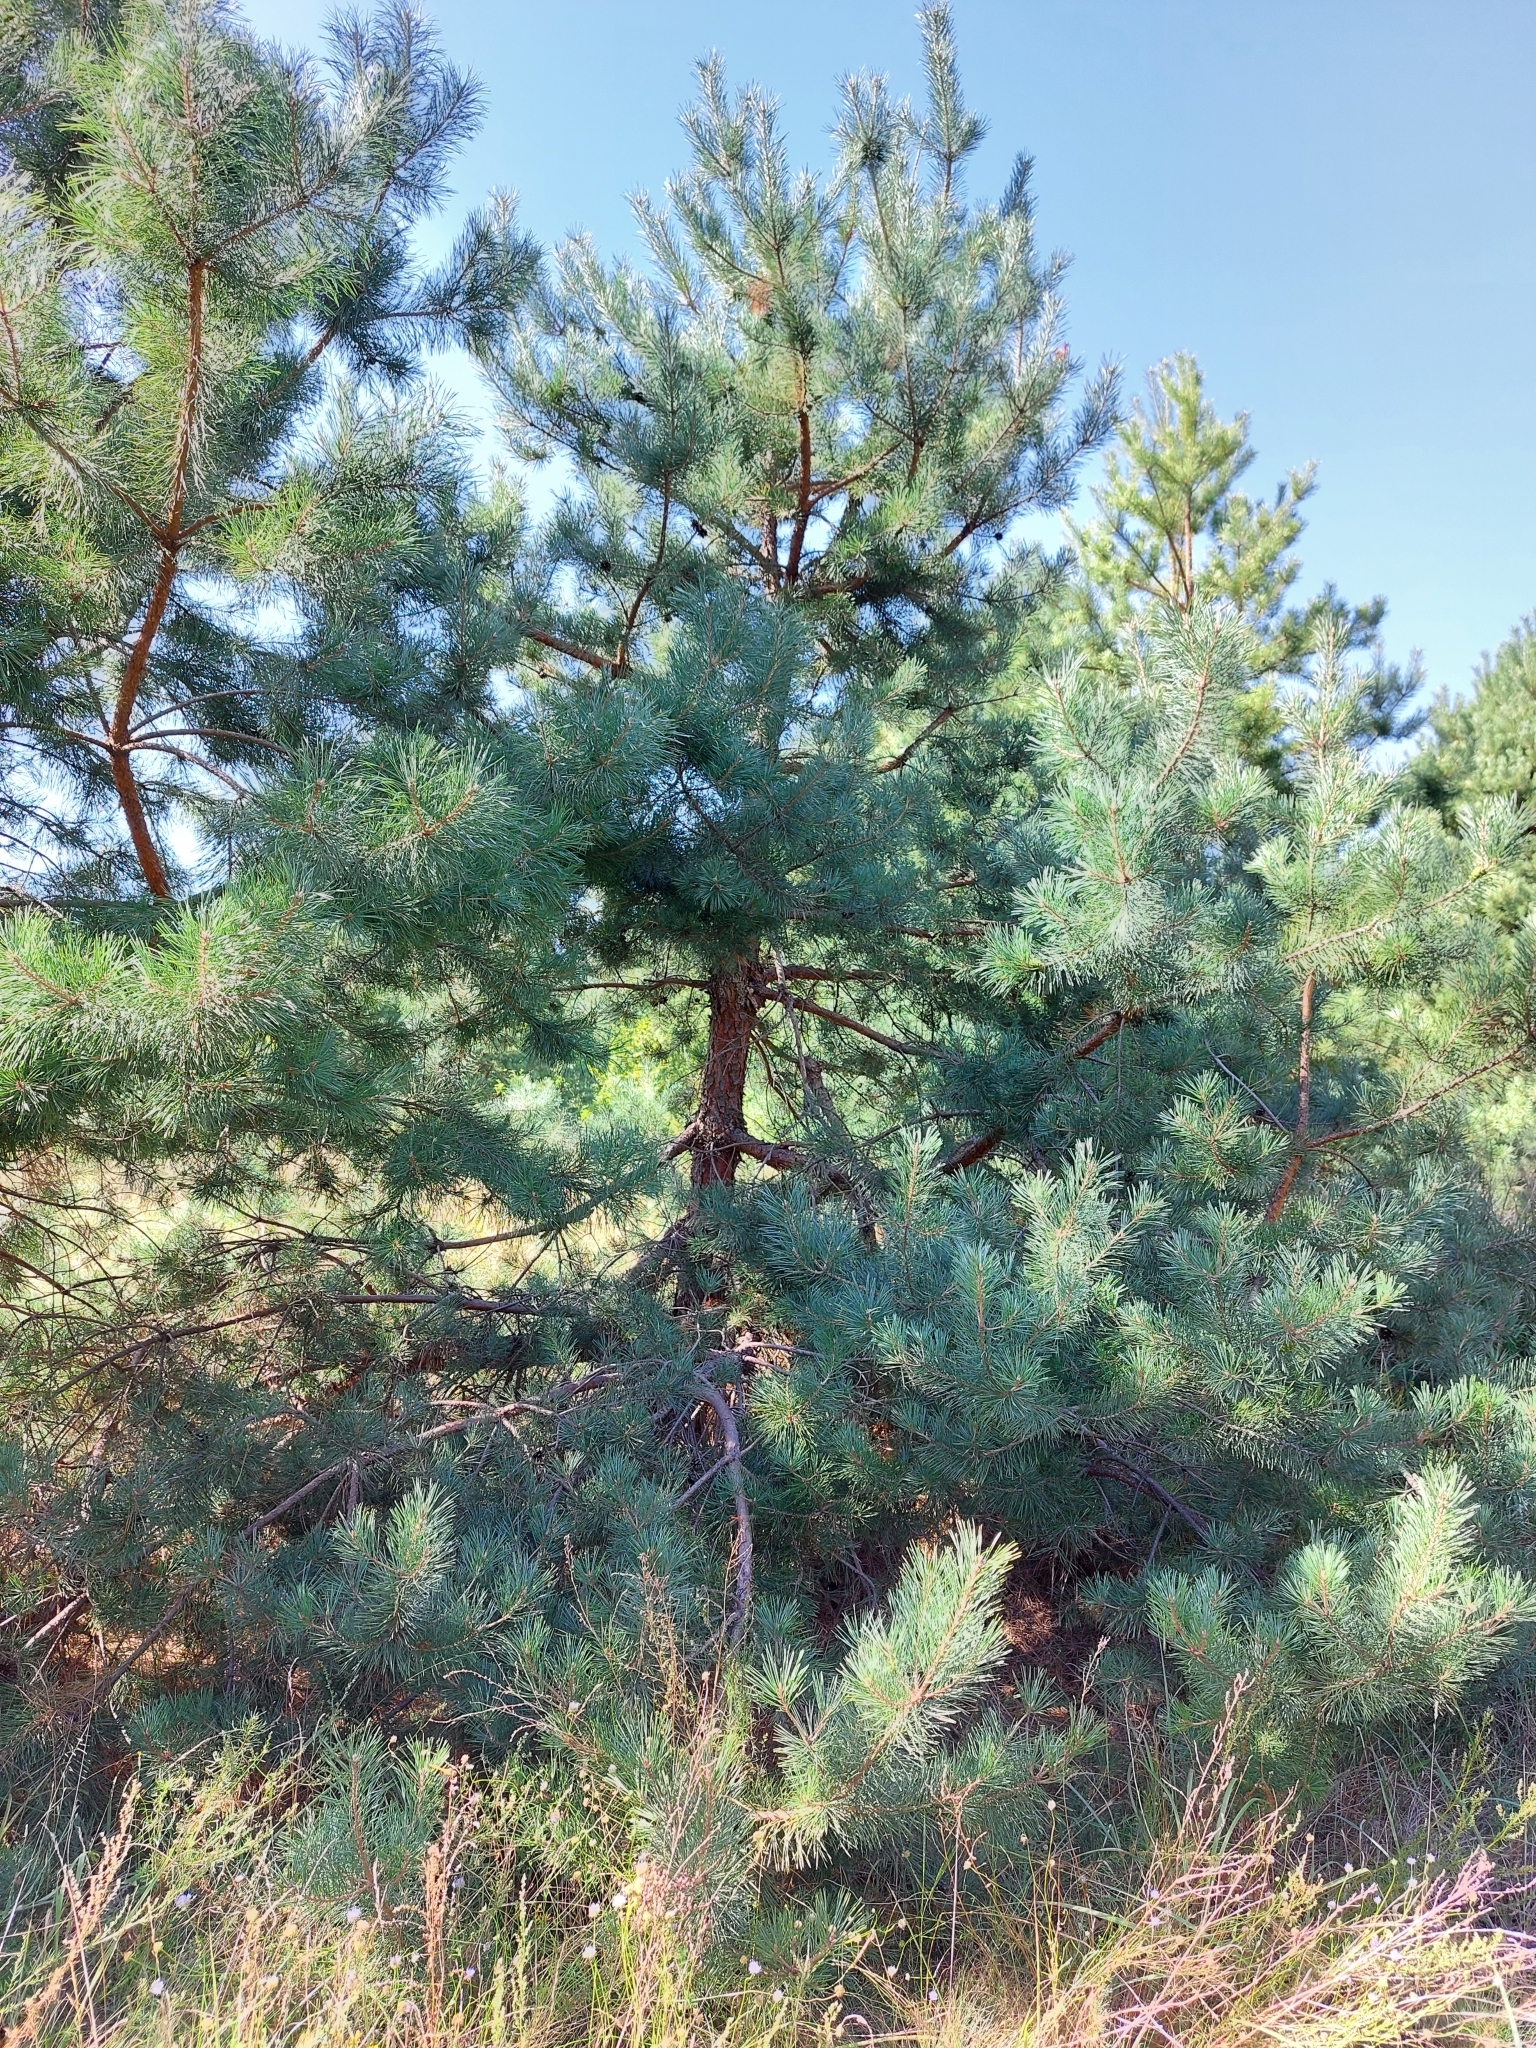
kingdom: Plantae
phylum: Tracheophyta
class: Pinopsida
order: Pinales
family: Pinaceae
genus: Pinus
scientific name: Pinus sylvestris
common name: Scots pine
